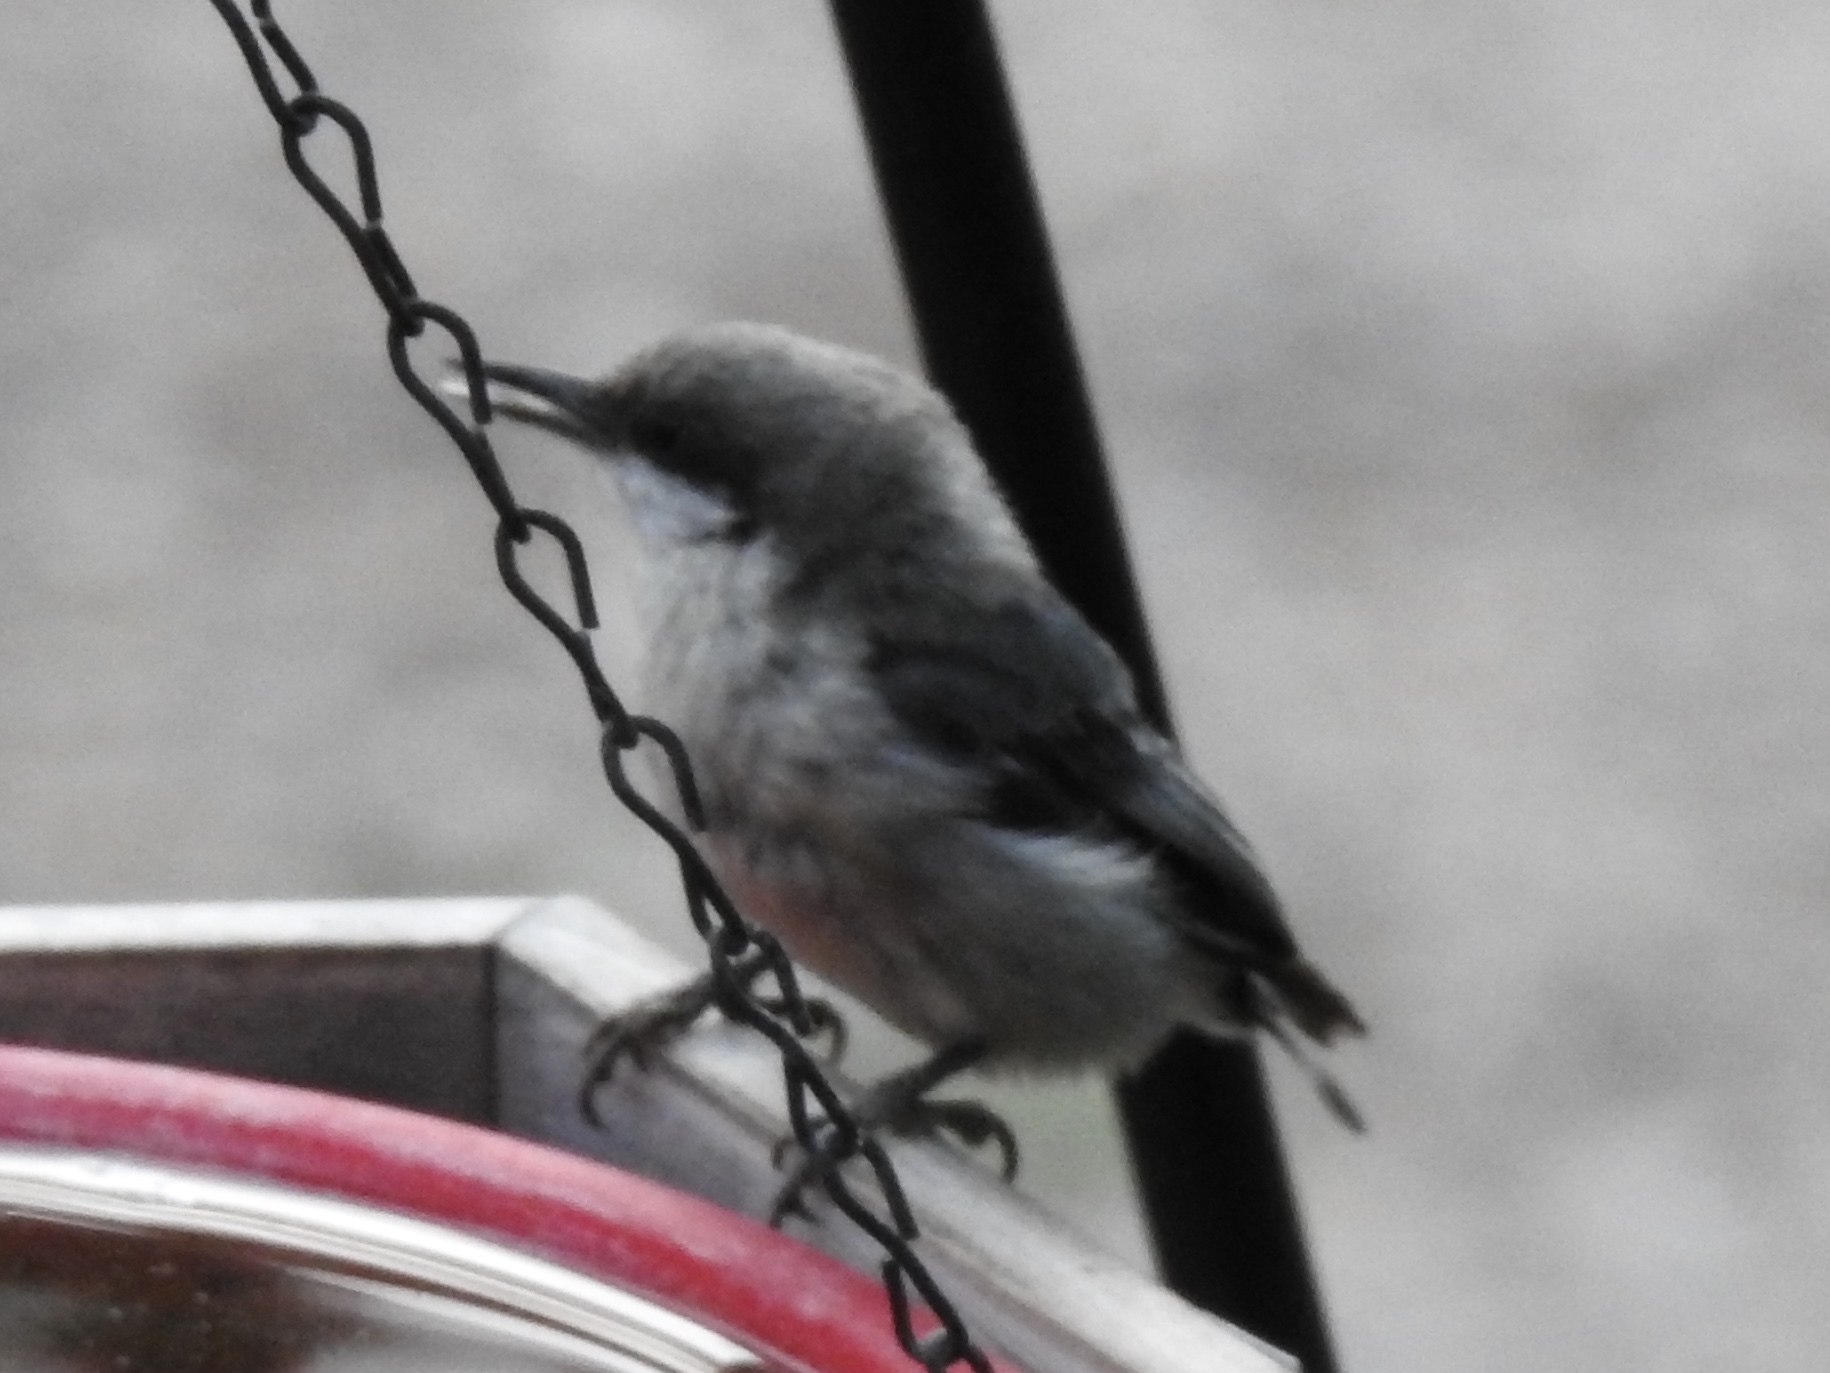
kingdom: Animalia
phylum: Chordata
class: Aves
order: Passeriformes
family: Sittidae
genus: Sitta
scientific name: Sitta pygmaea
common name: Pygmy nuthatch
